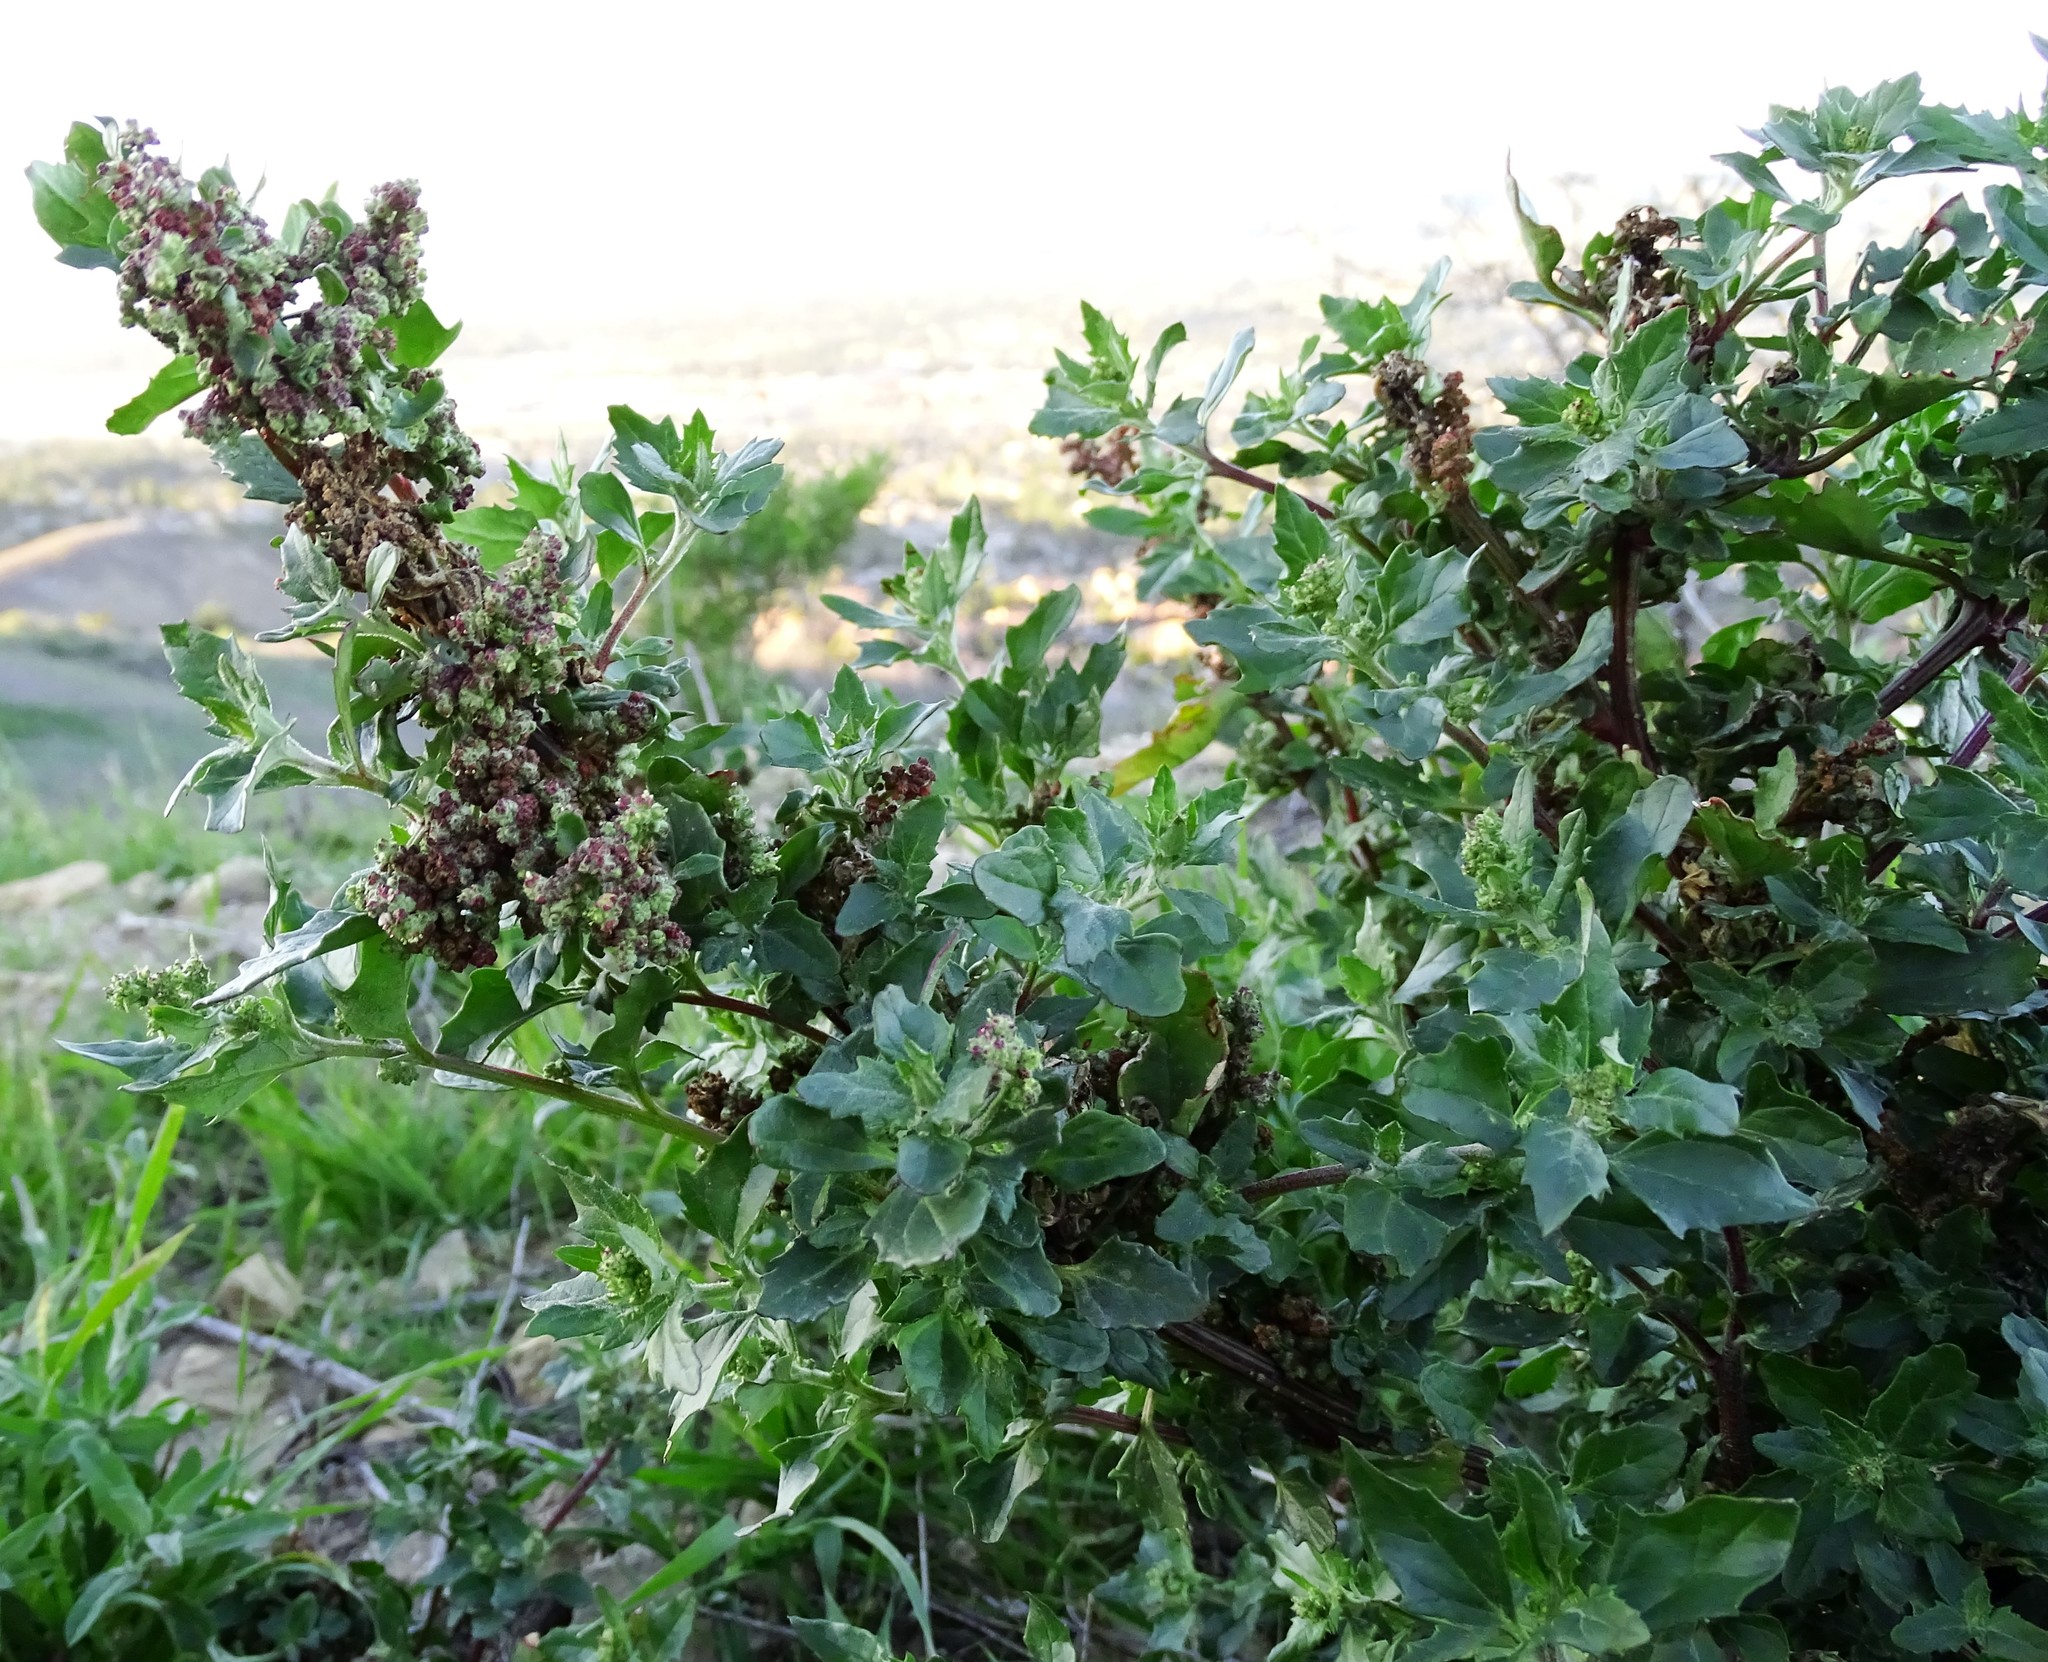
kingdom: Plantae
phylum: Tracheophyta
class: Magnoliopsida
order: Caryophyllales
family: Amaranthaceae
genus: Chenopodiastrum
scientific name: Chenopodiastrum murale
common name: Sowbane
